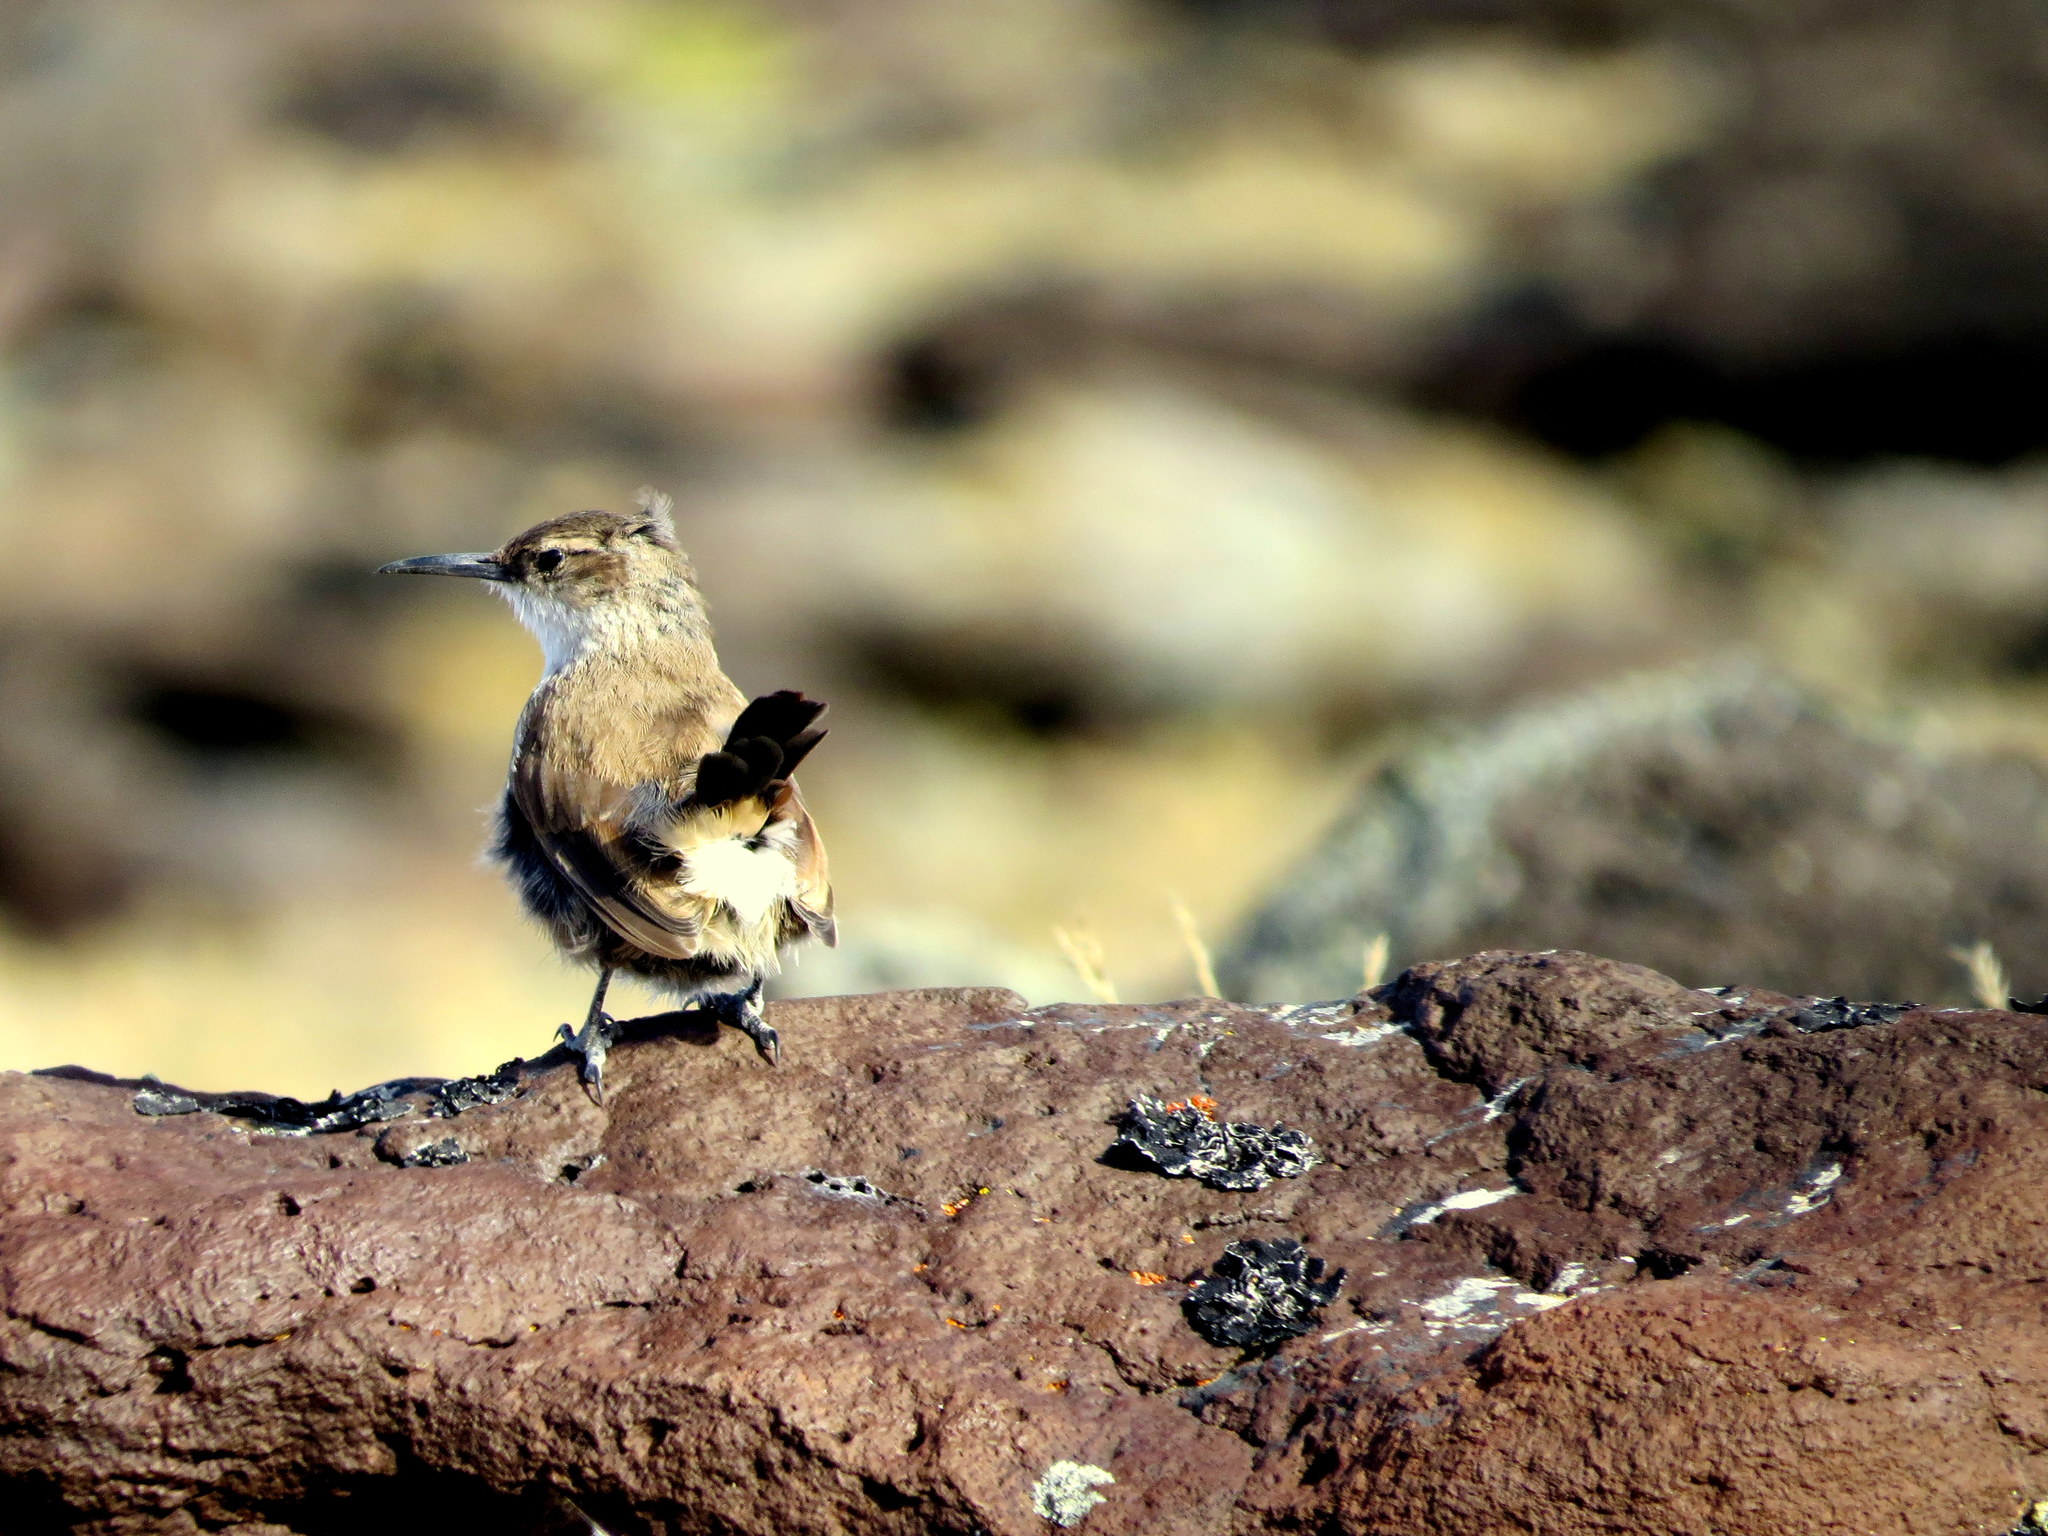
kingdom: Animalia
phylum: Chordata
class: Aves
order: Passeriformes
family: Furnariidae
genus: Upucerthia
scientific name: Upucerthia ruficaudus
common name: Straight-billed earthcreeper
